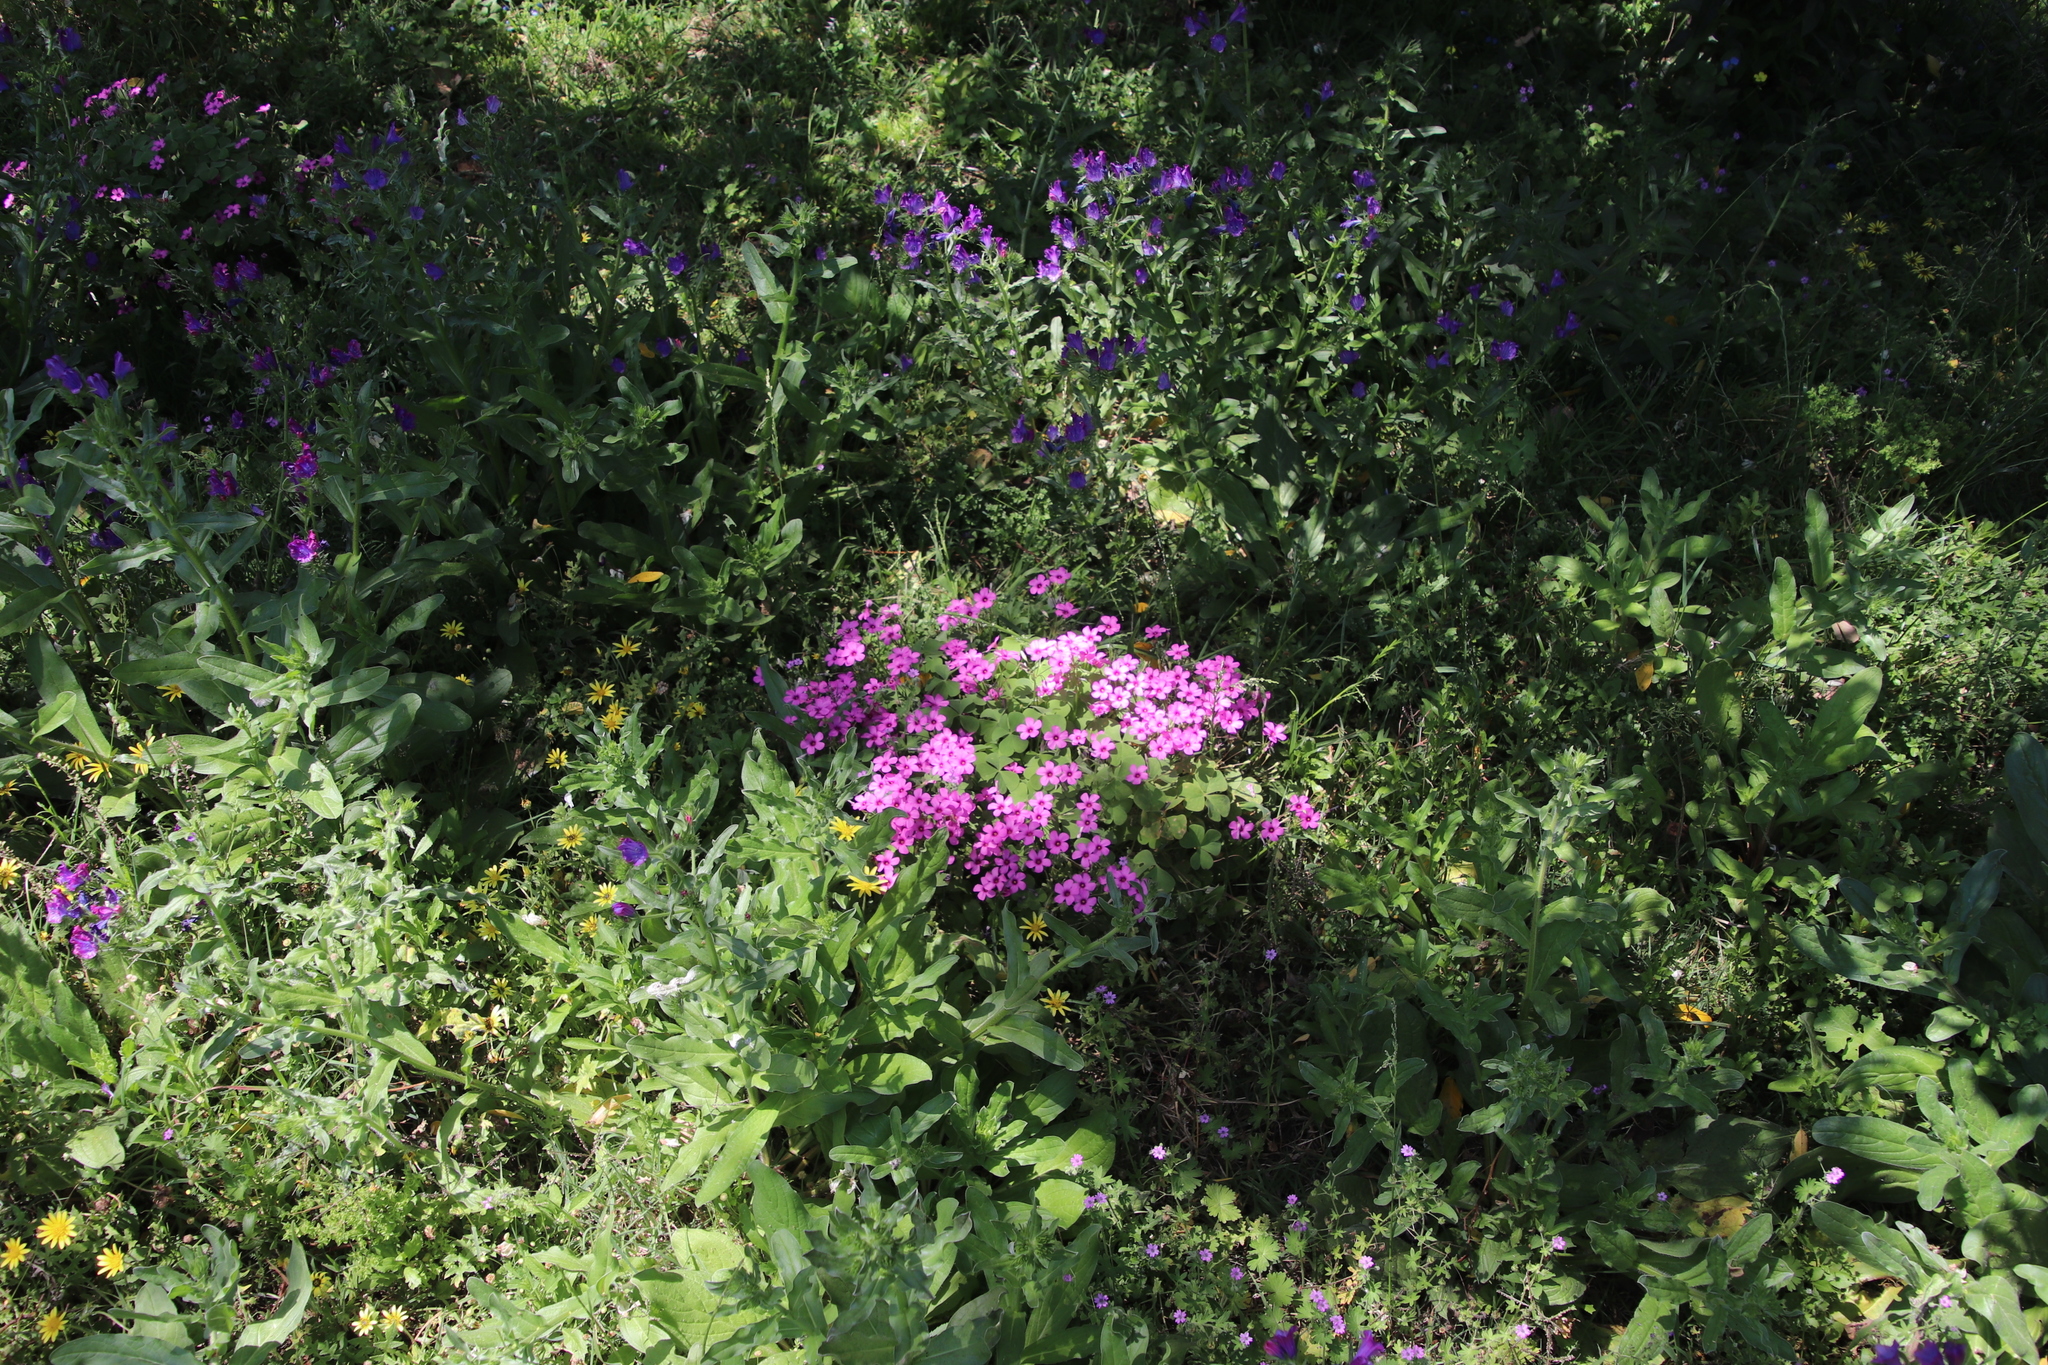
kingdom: Plantae
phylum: Tracheophyta
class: Magnoliopsida
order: Oxalidales
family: Oxalidaceae
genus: Oxalis
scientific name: Oxalis articulata
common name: Pink-sorrel
